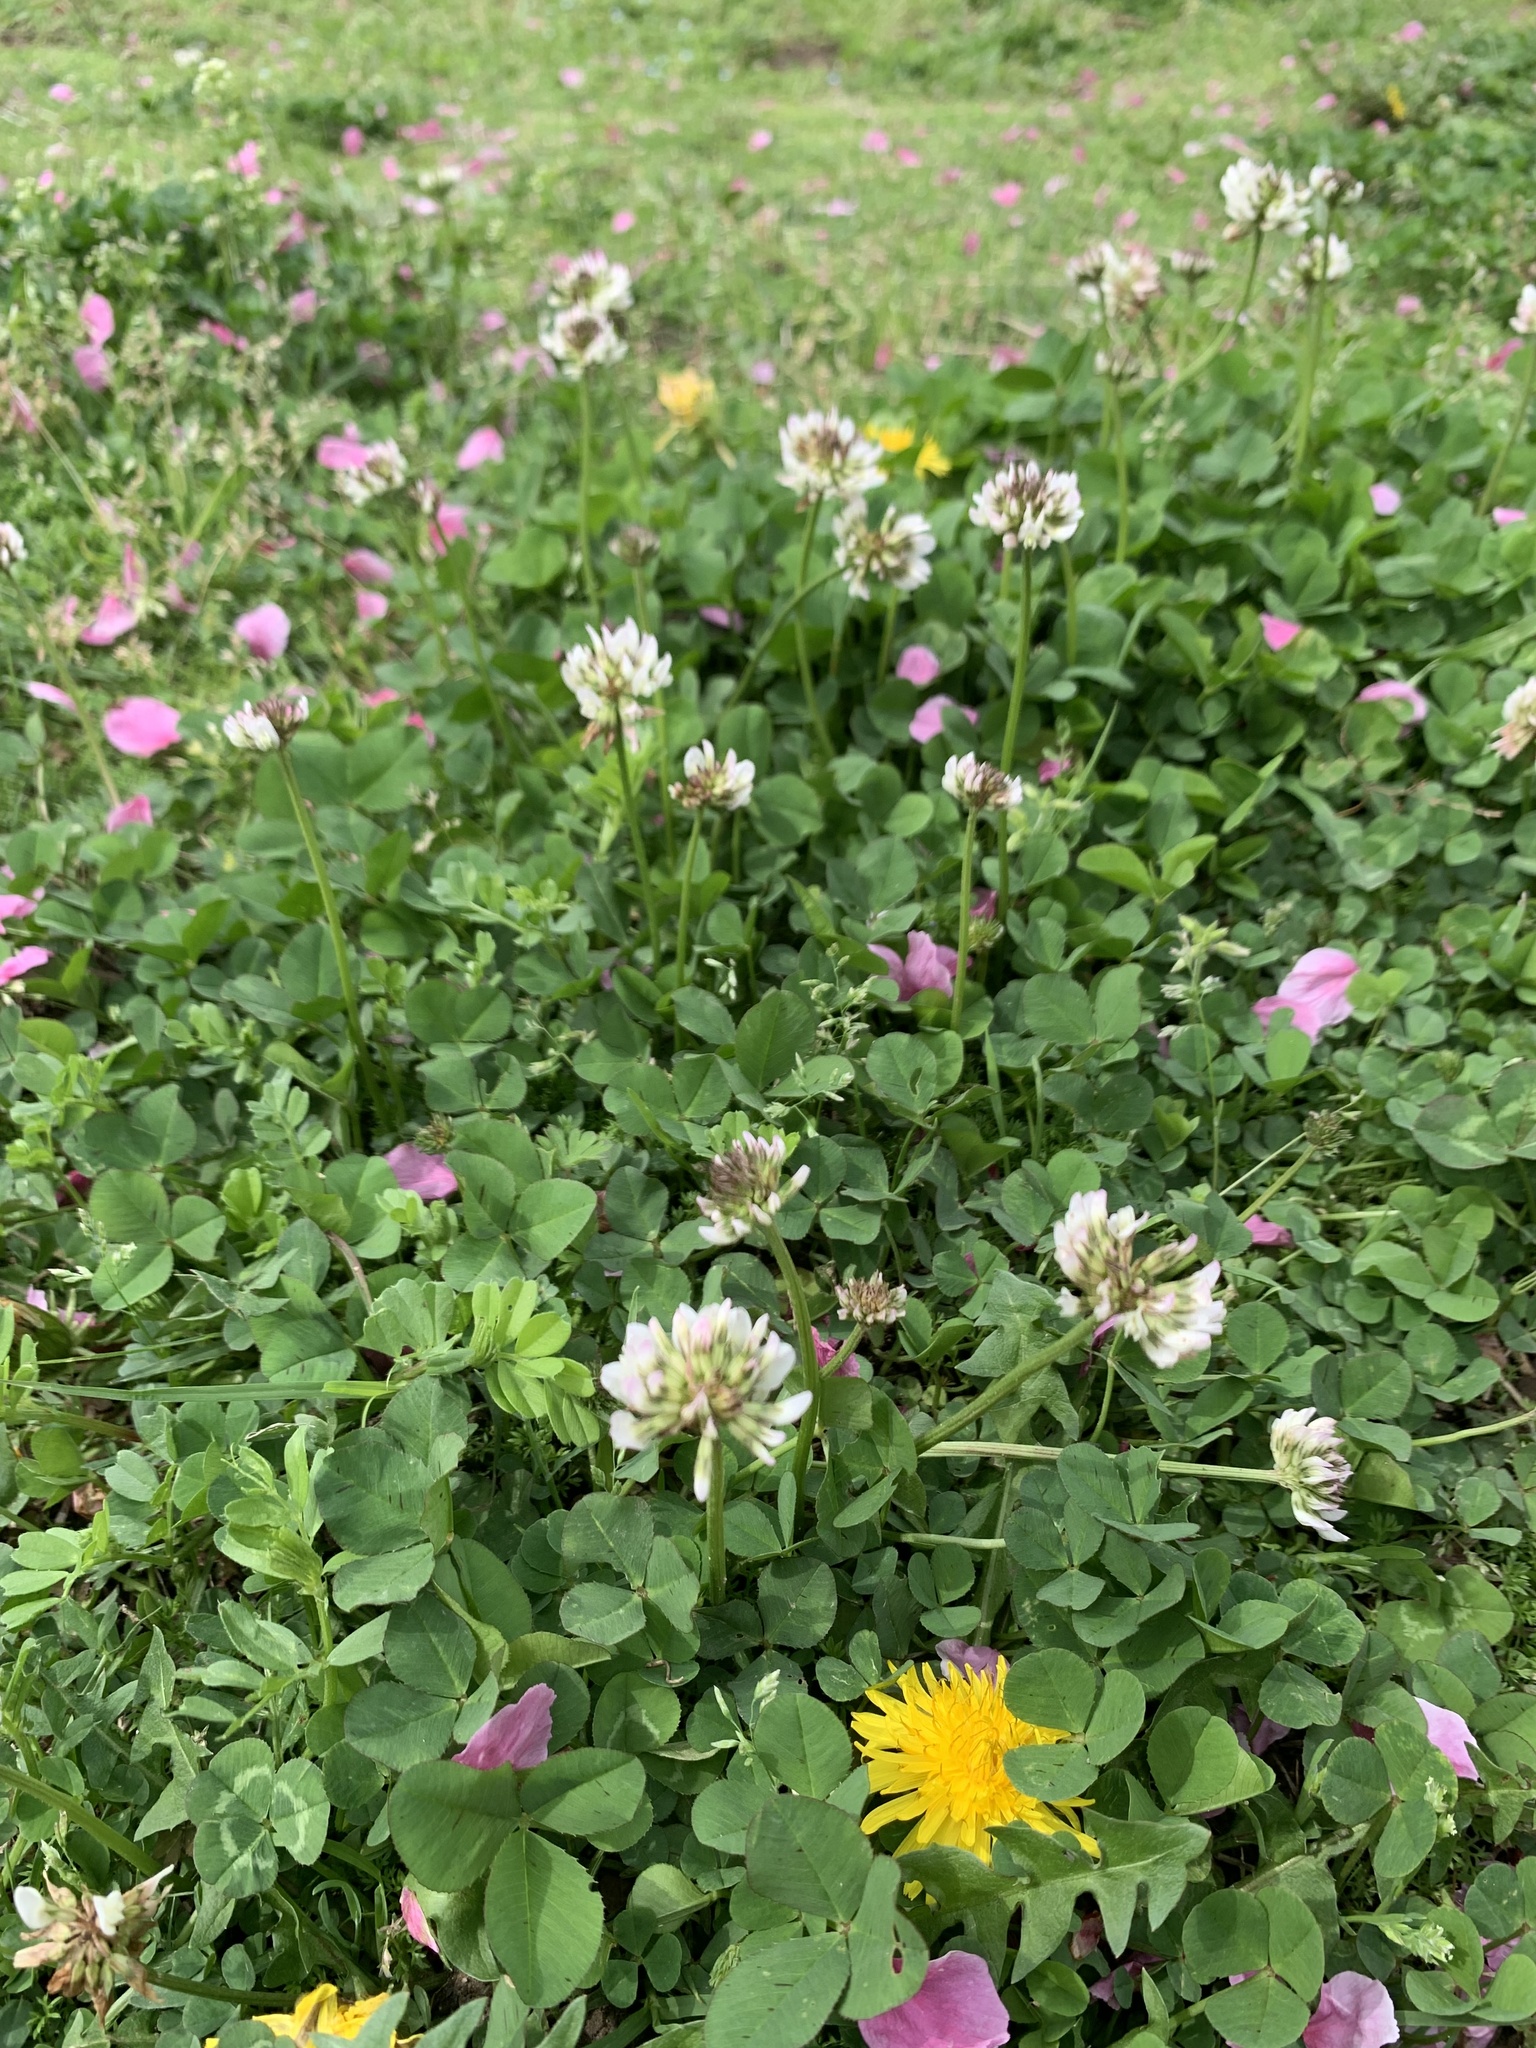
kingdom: Plantae
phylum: Tracheophyta
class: Magnoliopsida
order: Fabales
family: Fabaceae
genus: Trifolium
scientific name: Trifolium repens
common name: White clover
